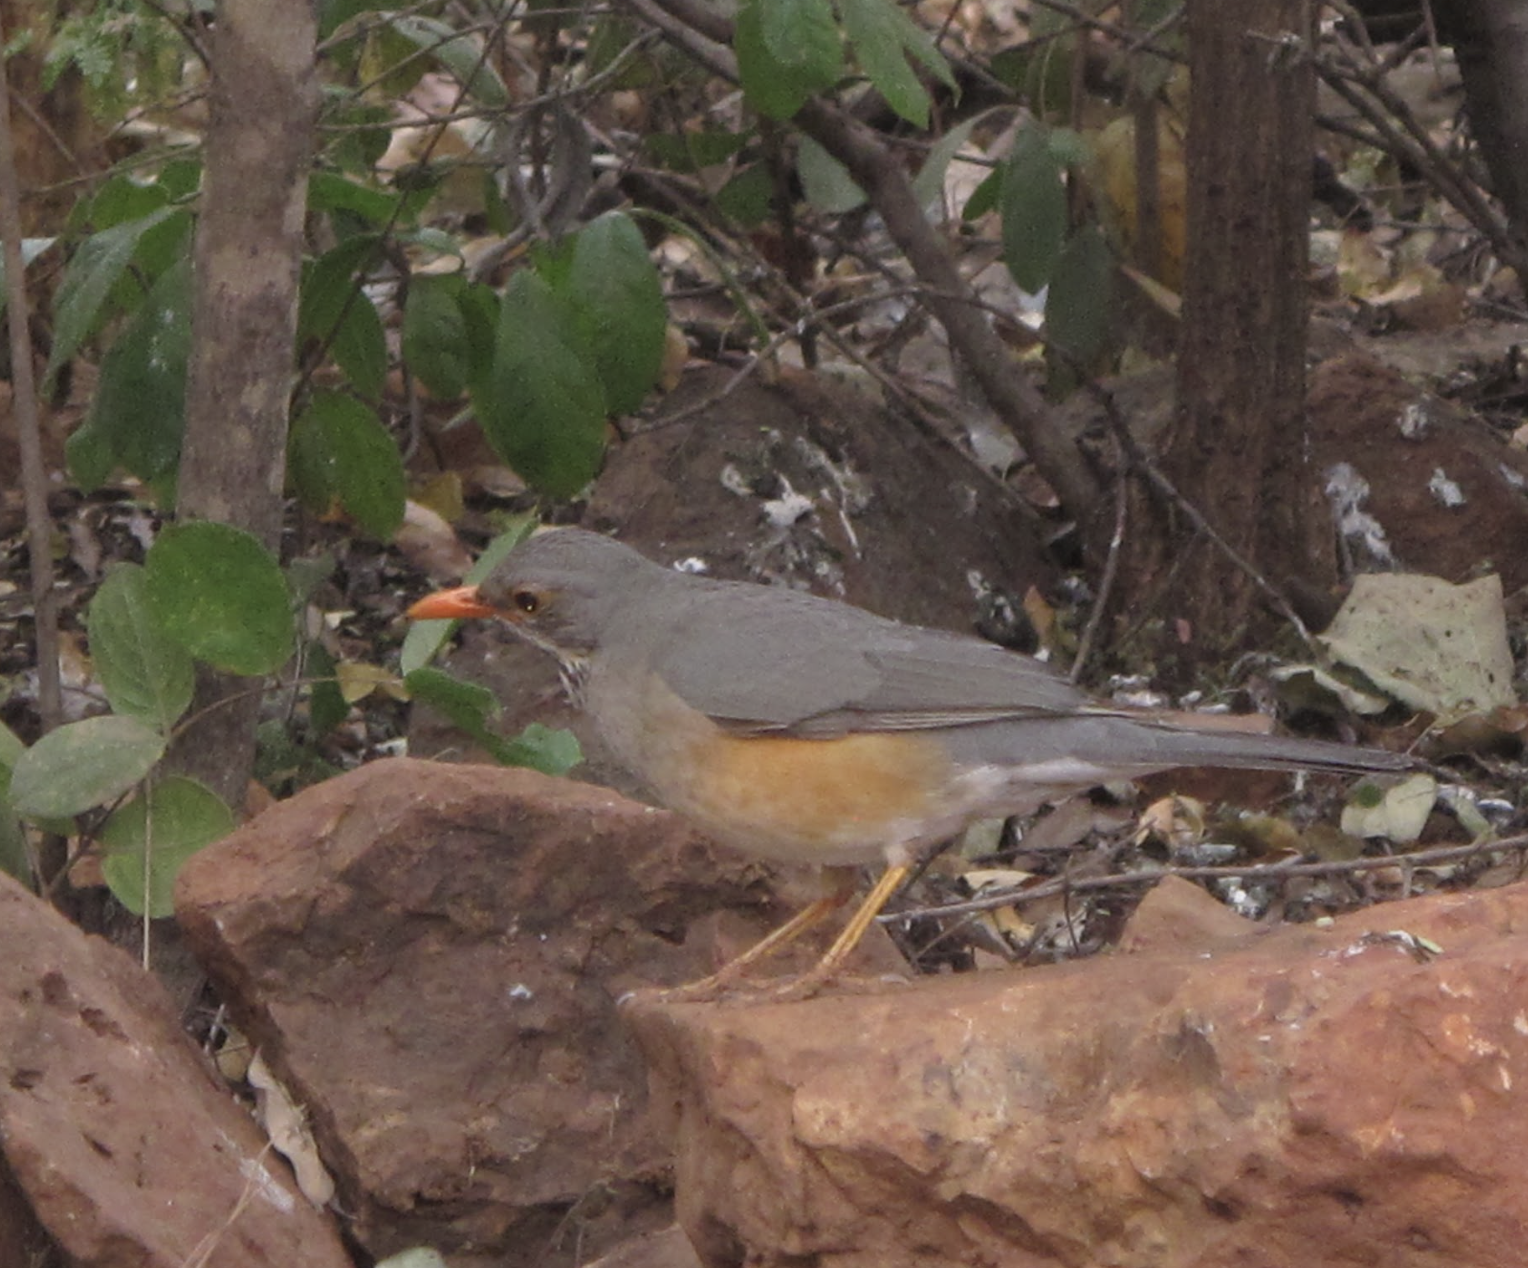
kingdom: Animalia
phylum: Chordata
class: Aves
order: Passeriformes
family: Turdidae
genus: Turdus
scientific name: Turdus libonyana
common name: Kurrichane thrush
